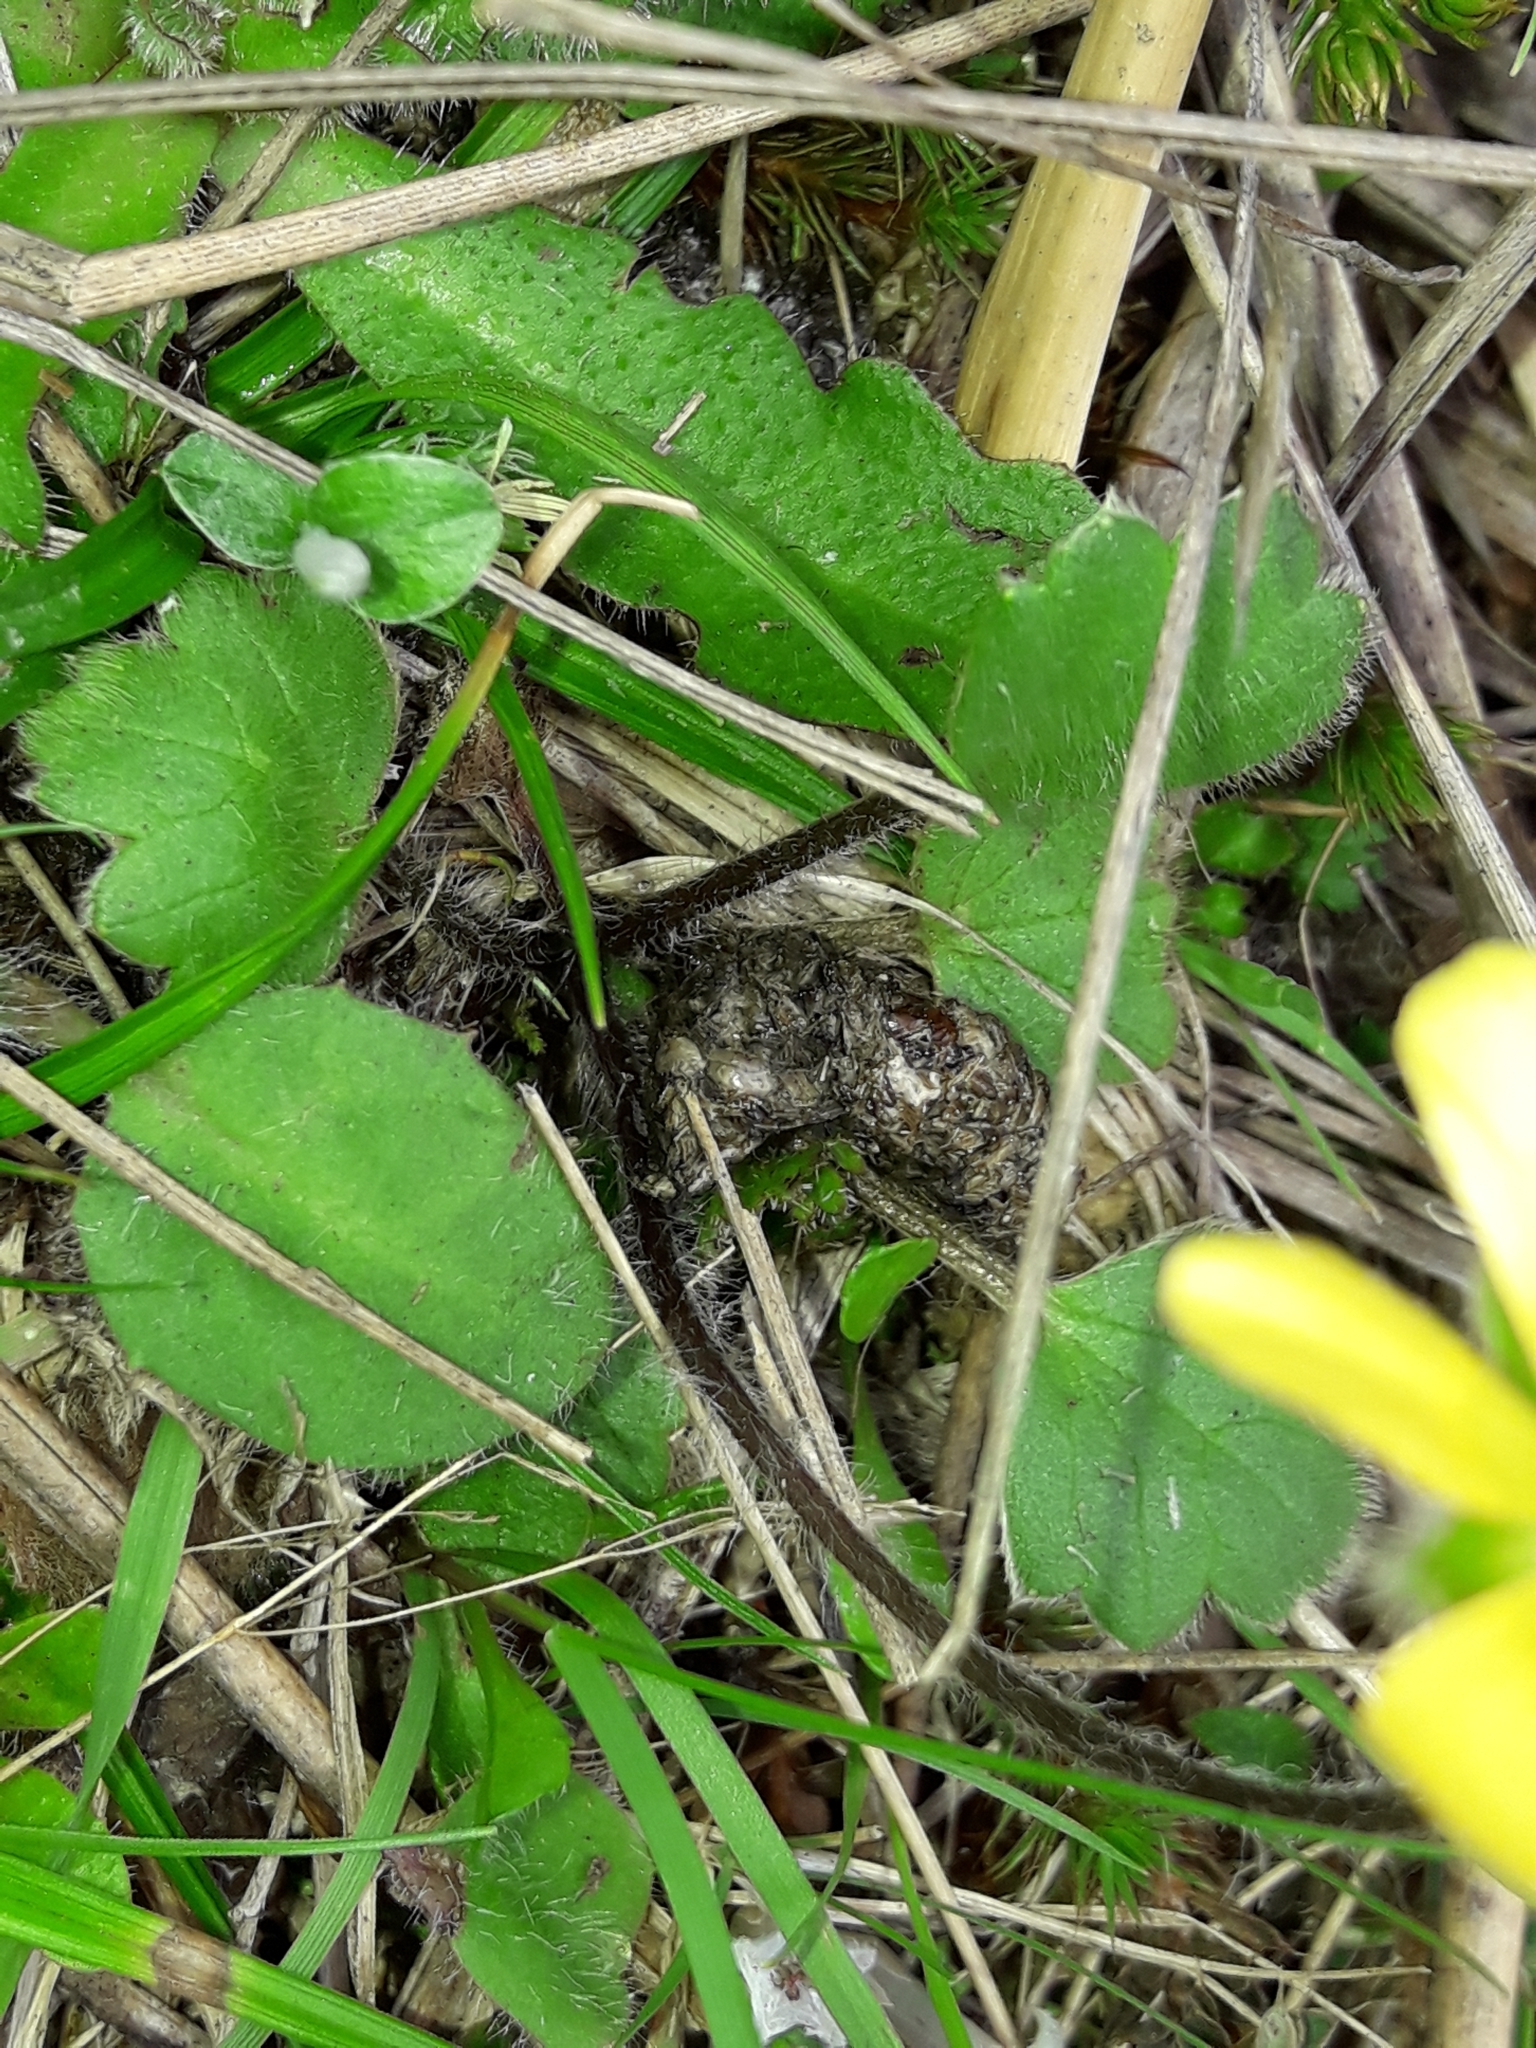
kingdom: Plantae
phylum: Tracheophyta
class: Magnoliopsida
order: Ranunculales
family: Ranunculaceae
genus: Ranunculus
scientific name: Ranunculus multiscapus
